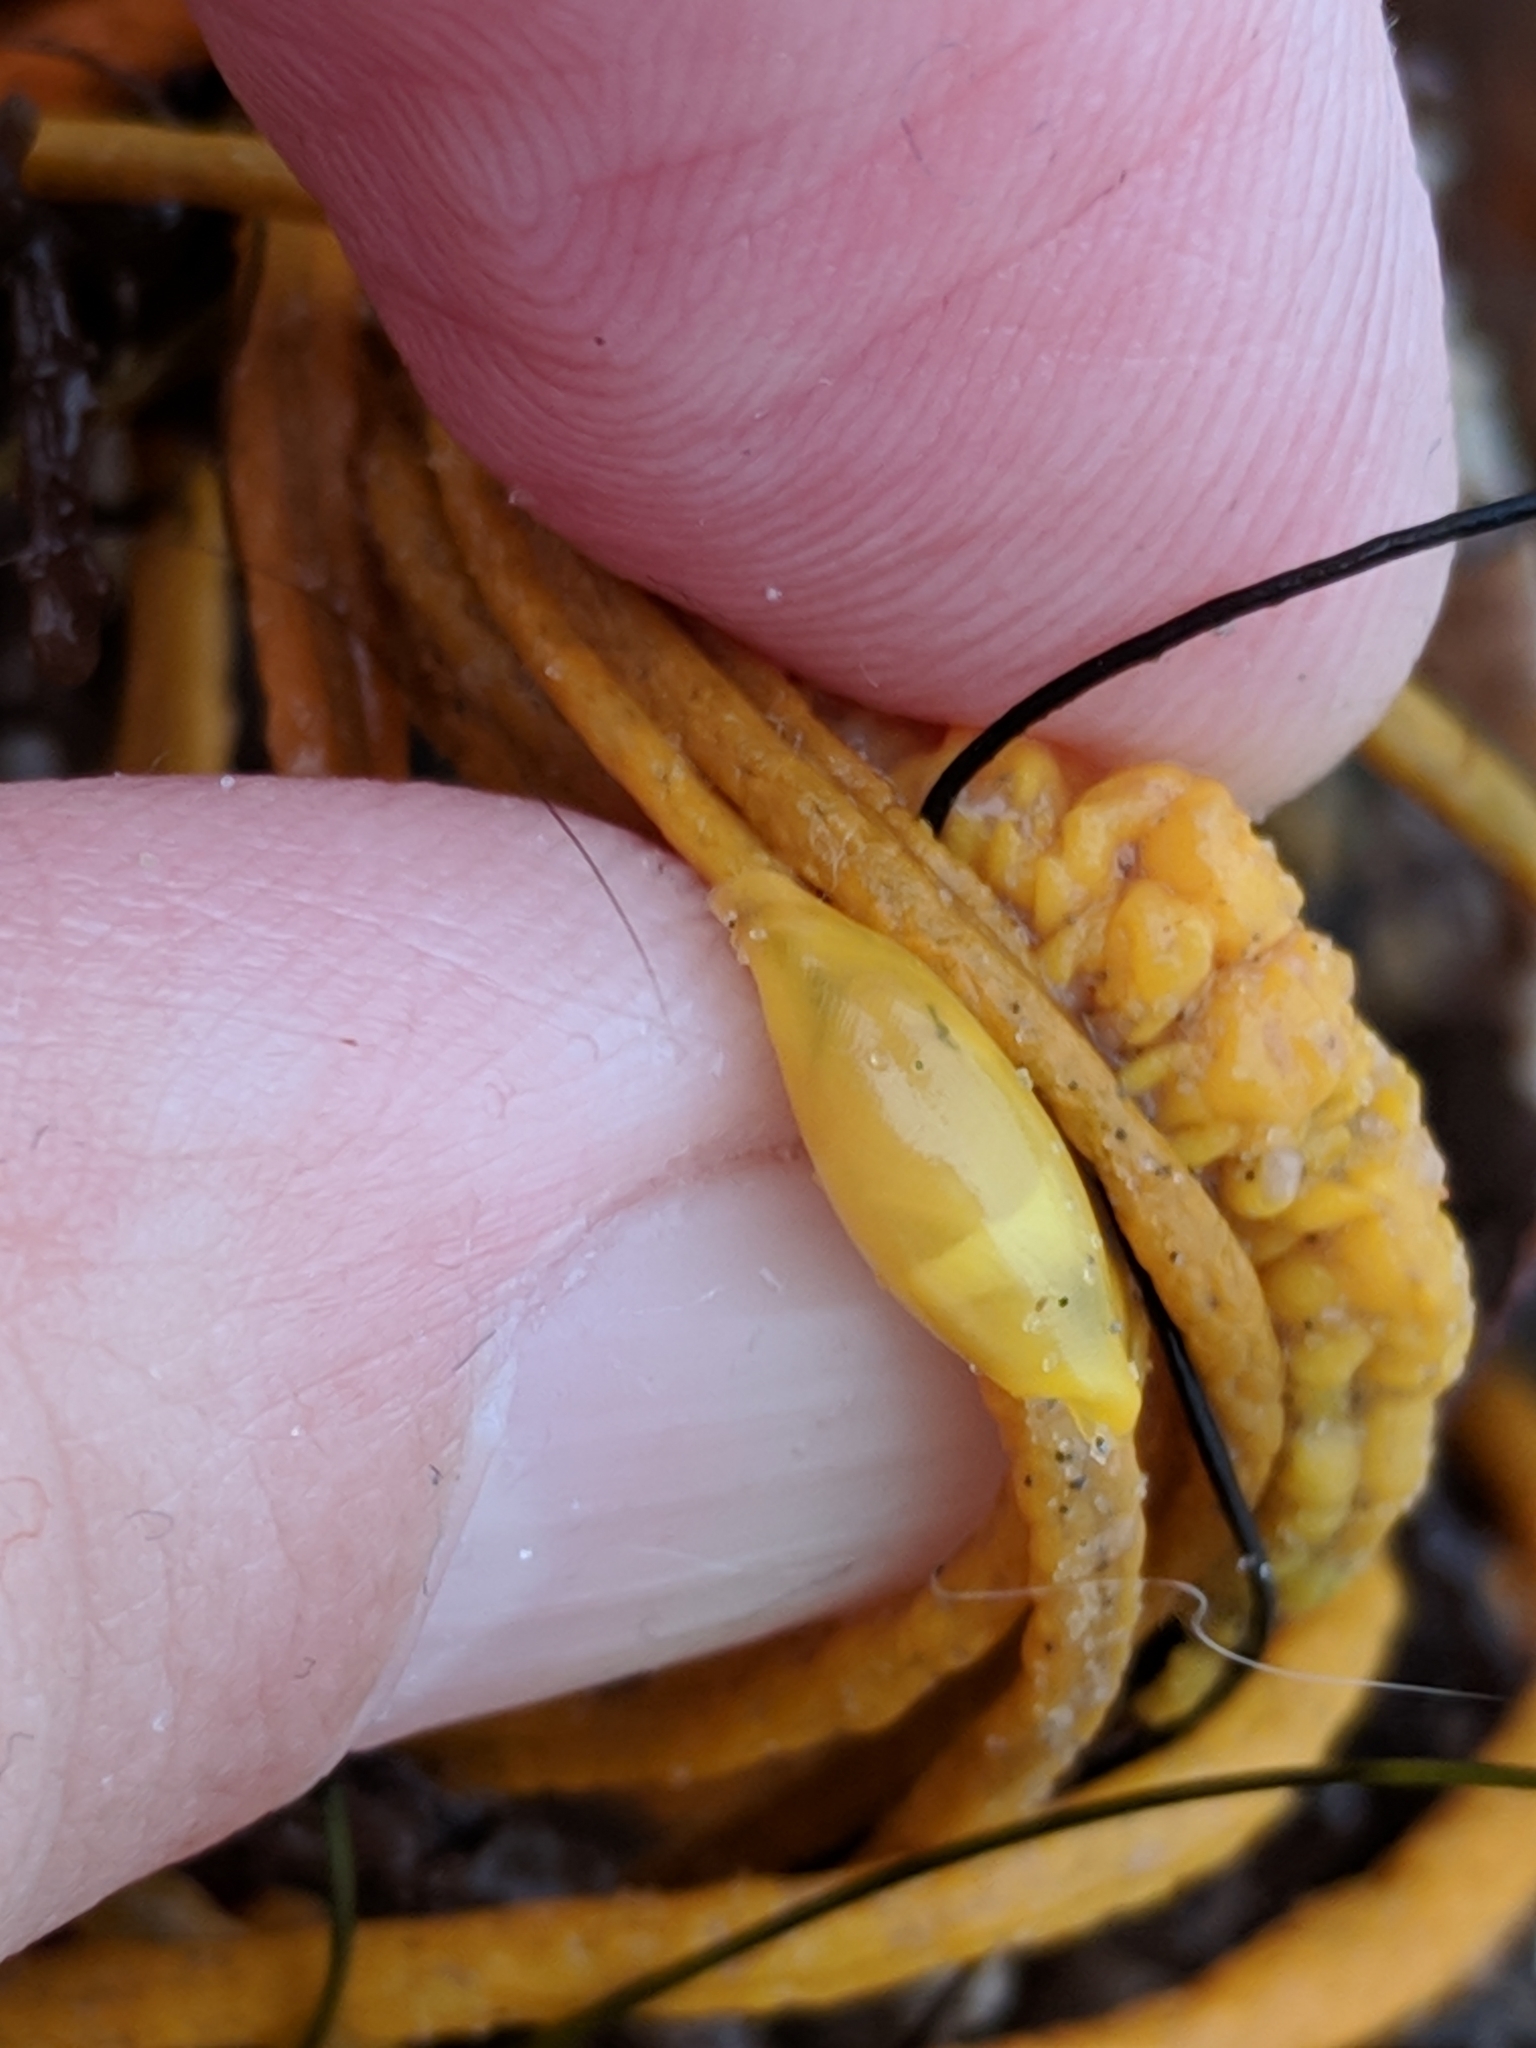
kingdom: Animalia
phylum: Mollusca
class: Gastropoda
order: Littorinimorpha
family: Ovulidae
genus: Simnialena
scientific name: Simnialena uniplicata
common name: One-tooth simnia
